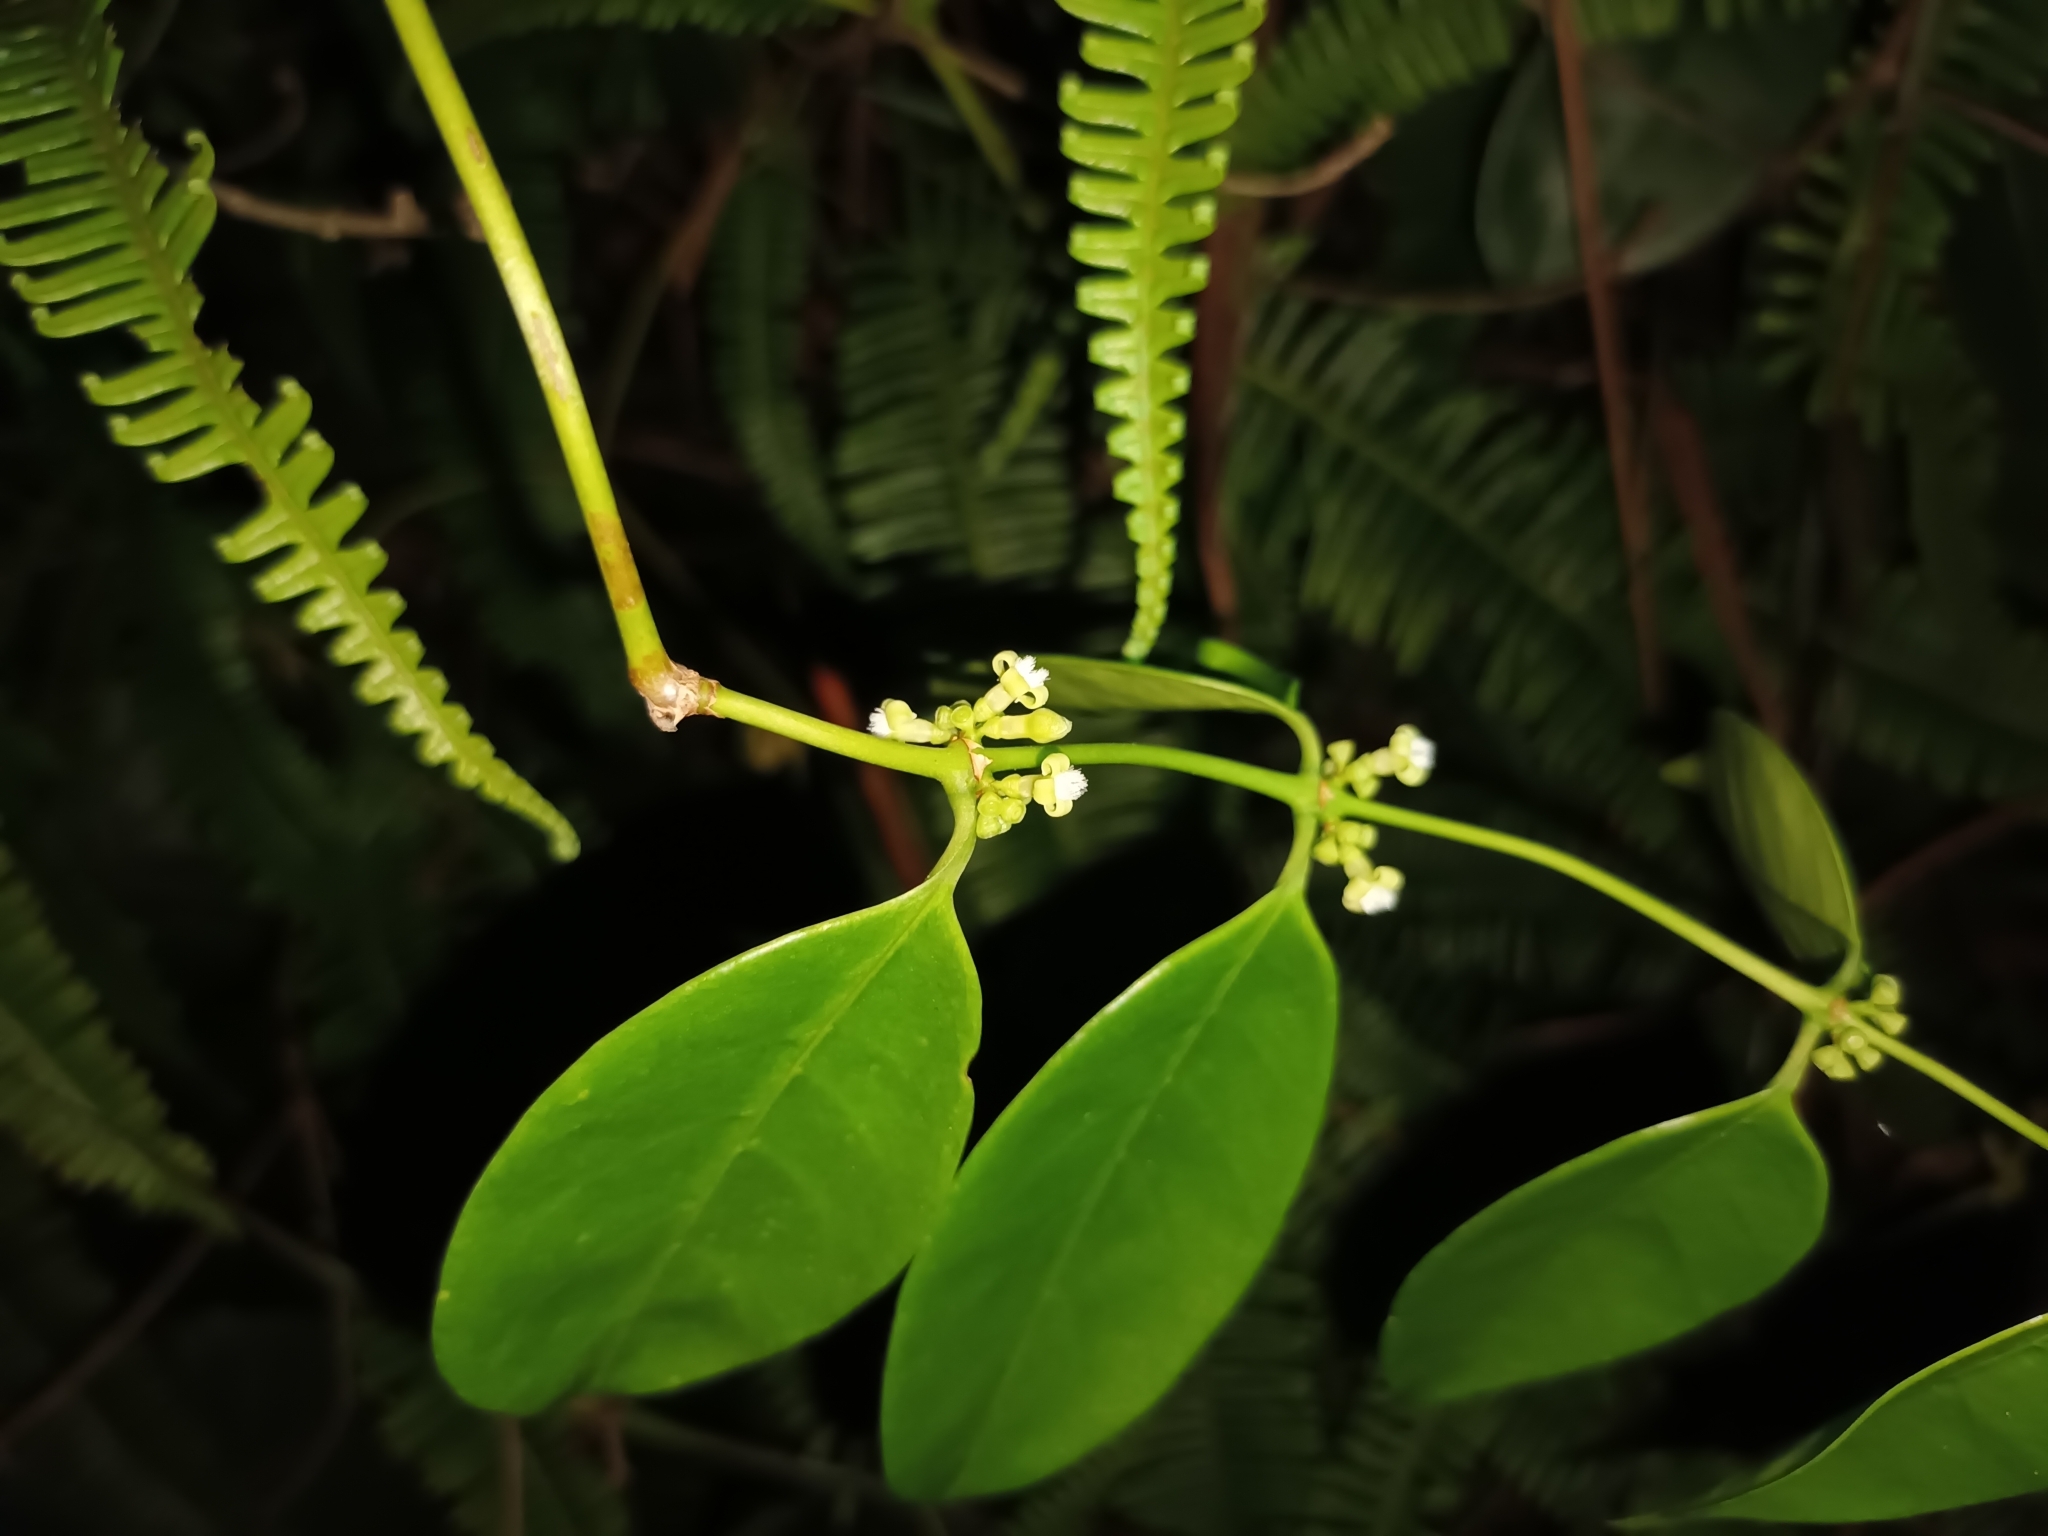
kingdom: Plantae
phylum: Tracheophyta
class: Magnoliopsida
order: Gentianales
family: Rubiaceae
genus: Gynochthodes
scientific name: Gynochthodes coriacea
